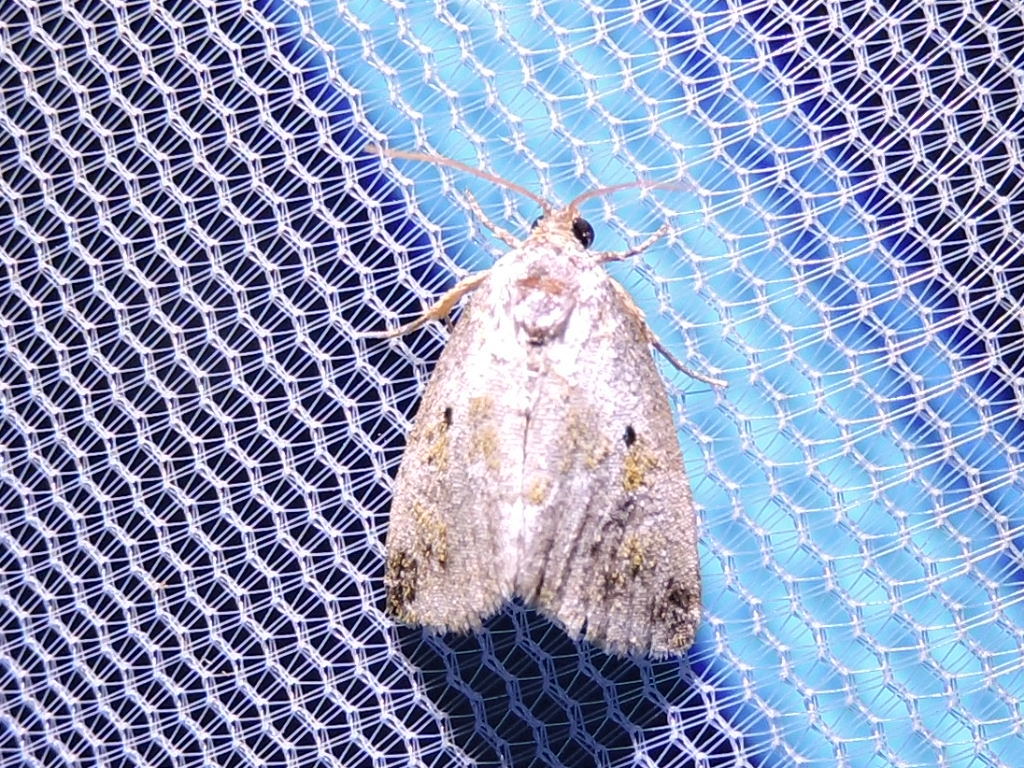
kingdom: Animalia
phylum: Arthropoda
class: Insecta
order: Lepidoptera
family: Noctuidae
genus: Maliattha
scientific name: Maliattha synochitis
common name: Black-dotted glyph
